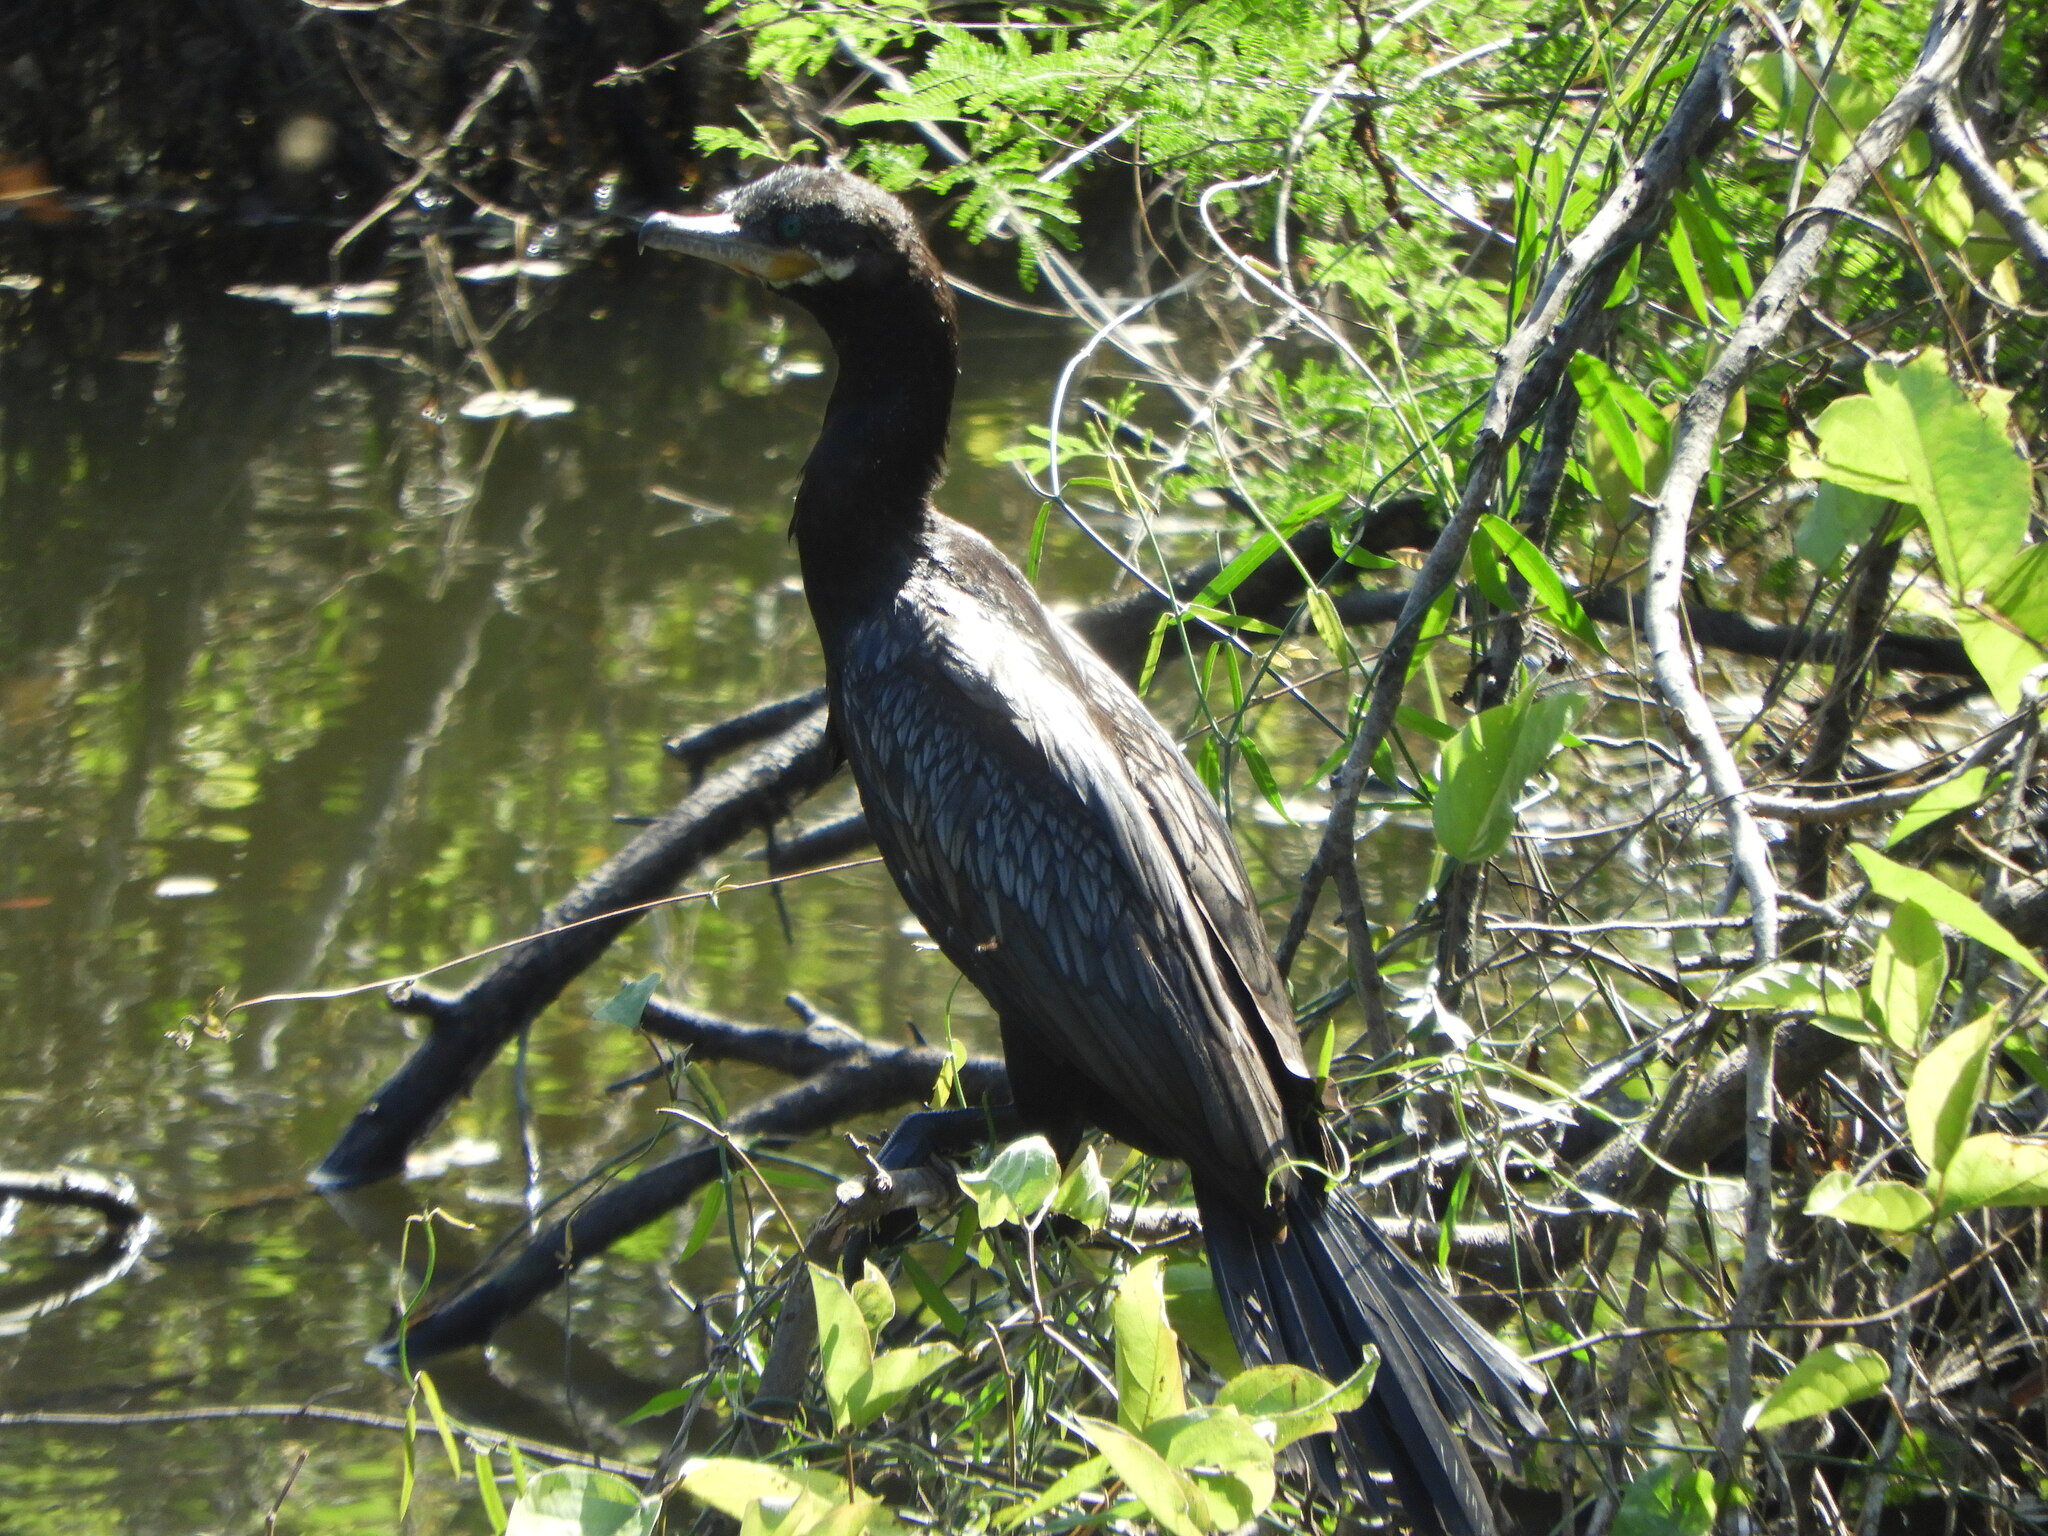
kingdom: Animalia
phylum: Chordata
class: Aves
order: Suliformes
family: Phalacrocoracidae
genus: Phalacrocorax
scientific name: Phalacrocorax brasilianus
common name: Neotropic cormorant
